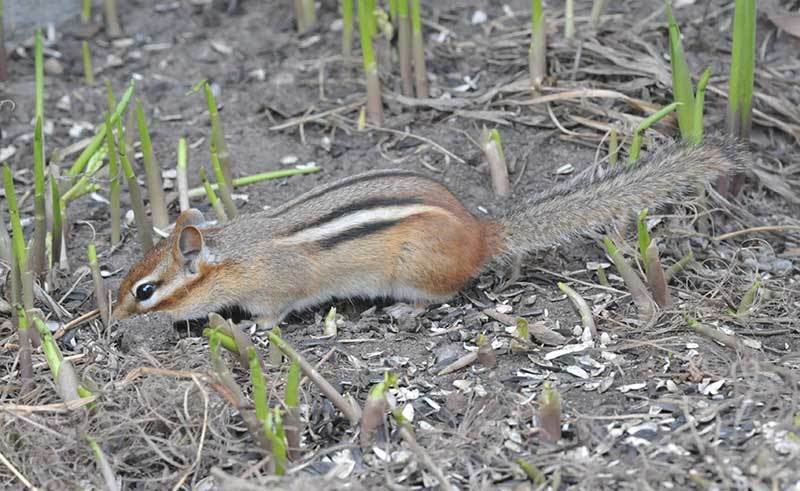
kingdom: Animalia
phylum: Chordata
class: Mammalia
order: Rodentia
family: Sciuridae
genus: Tamias
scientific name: Tamias striatus
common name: Eastern chipmunk
